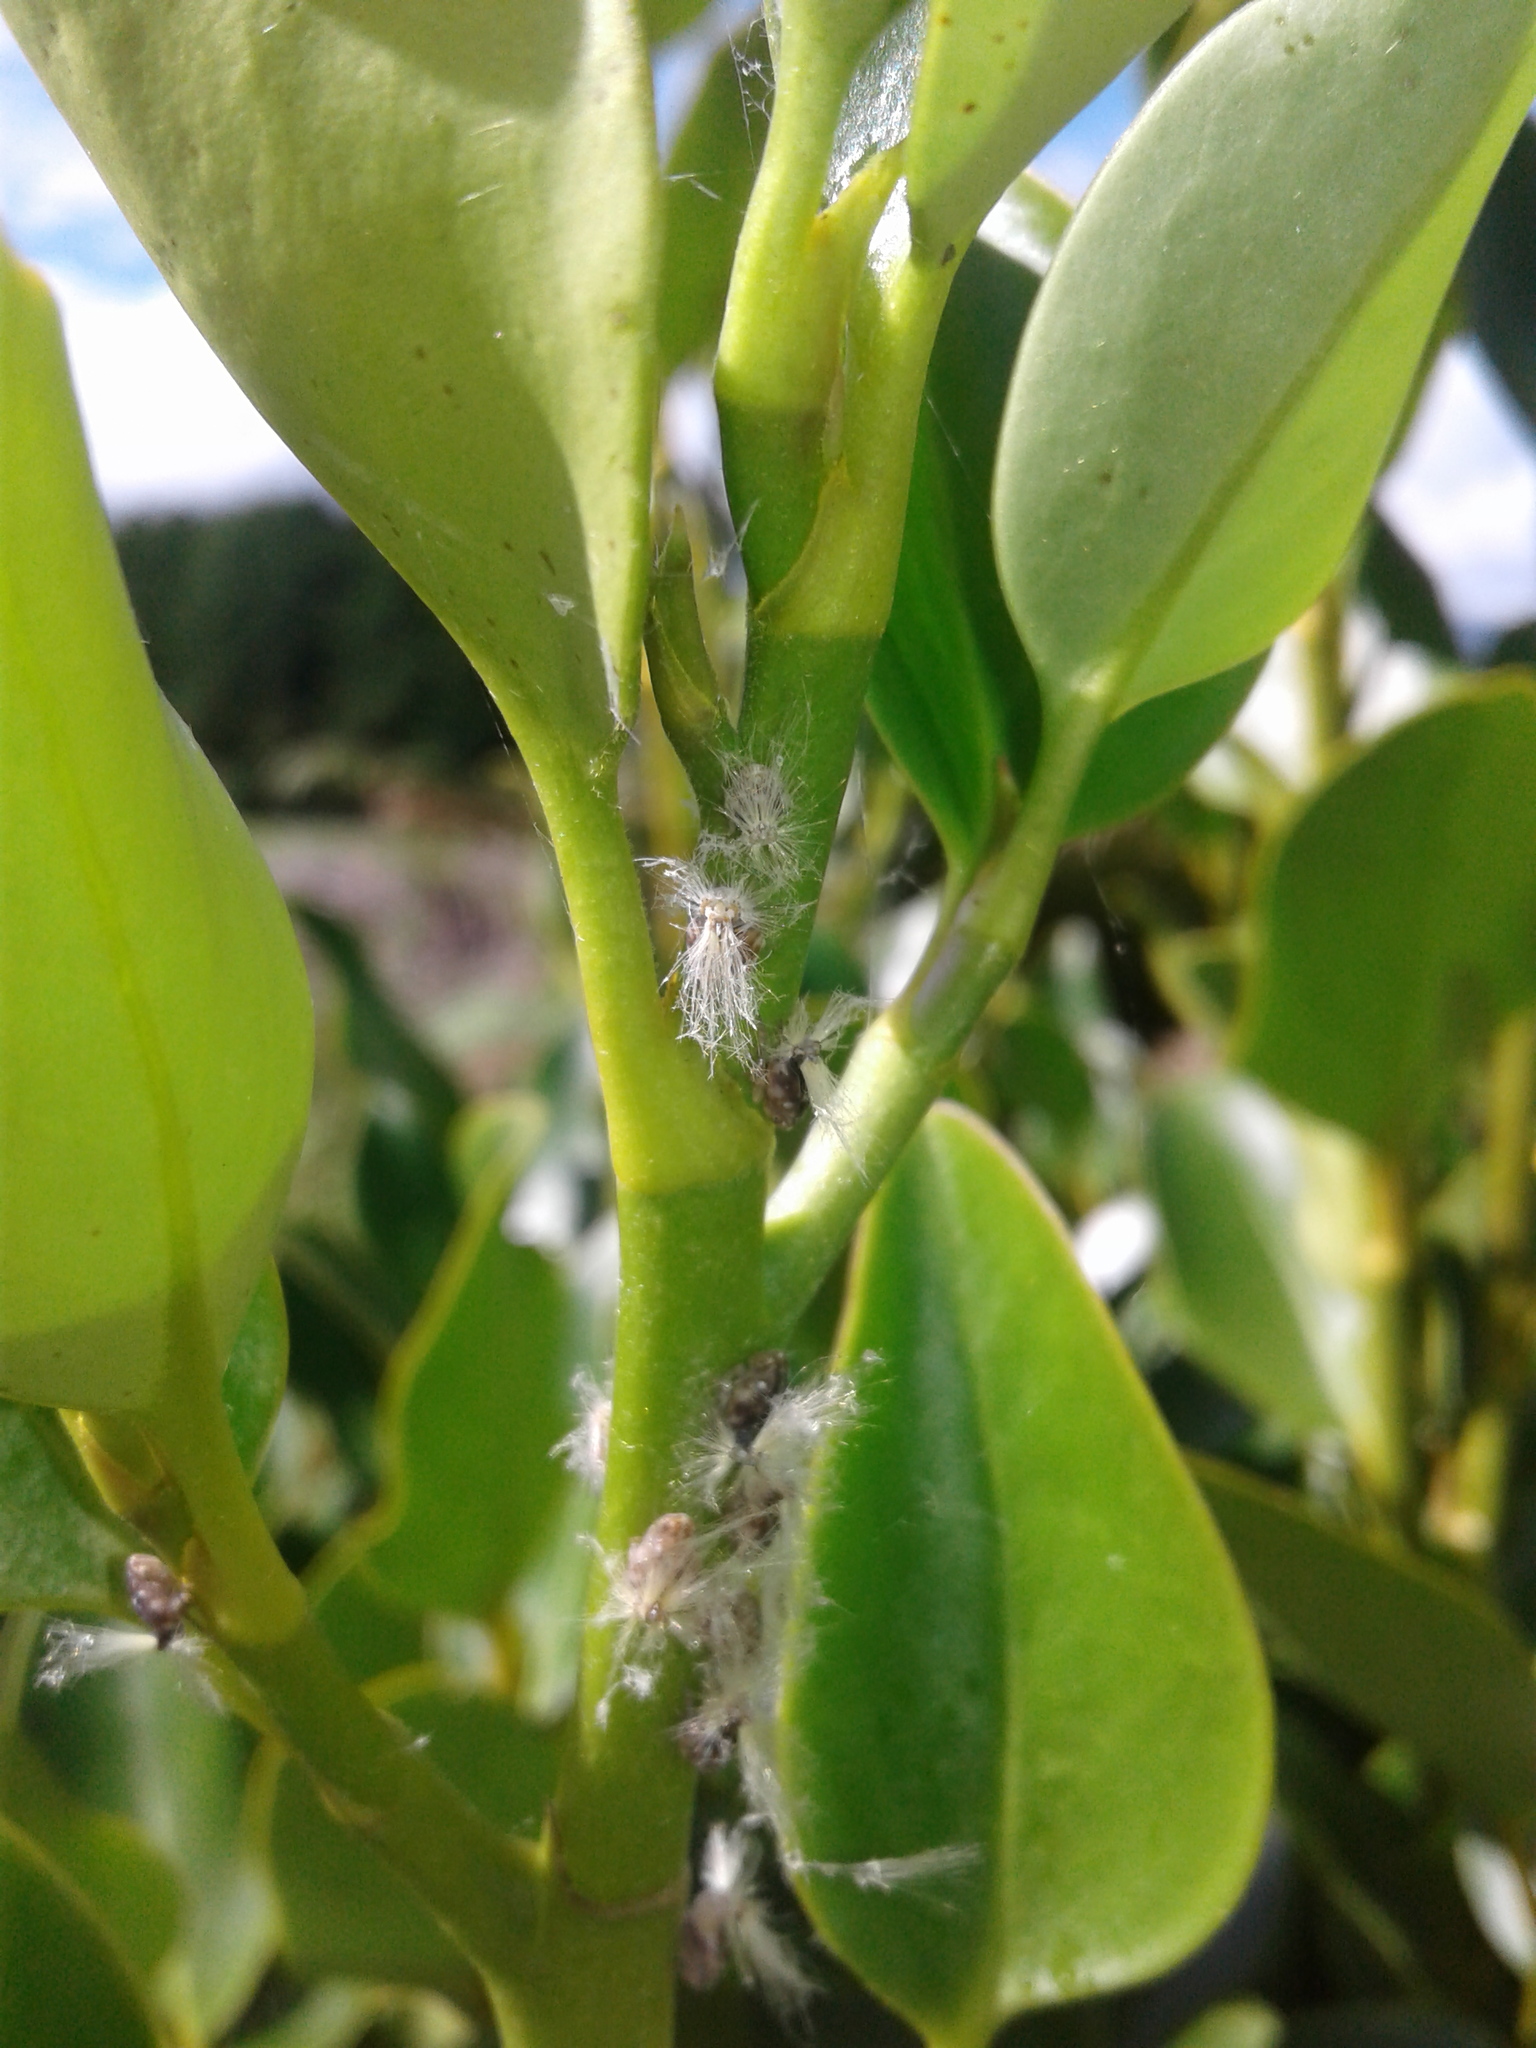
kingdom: Animalia
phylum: Arthropoda
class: Insecta
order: Hemiptera
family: Ricaniidae
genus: Scolypopa
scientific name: Scolypopa australis
